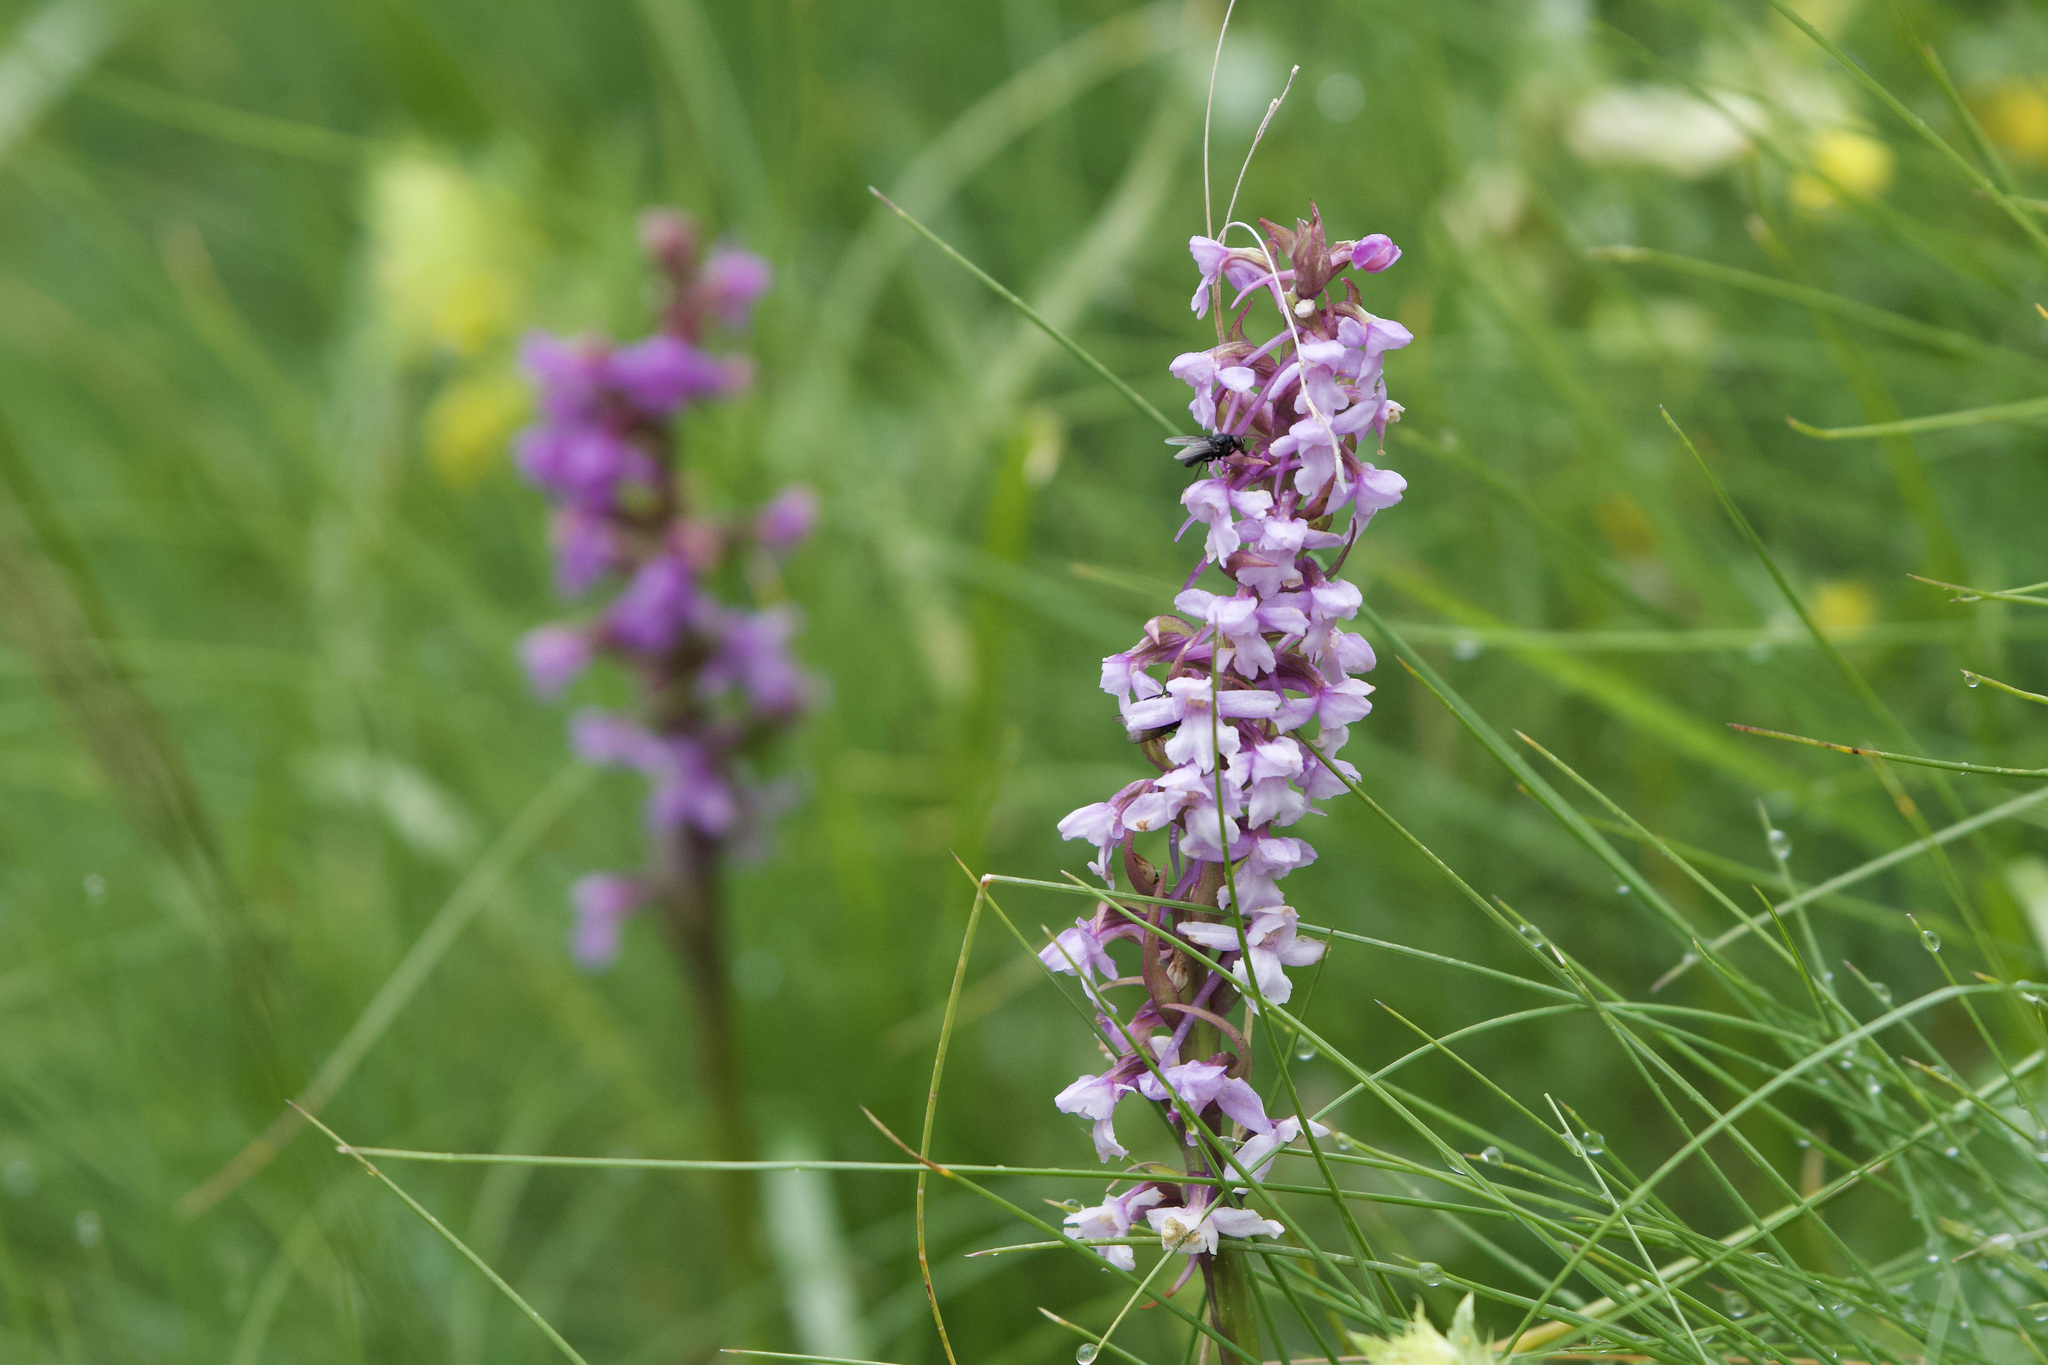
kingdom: Plantae
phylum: Tracheophyta
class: Liliopsida
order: Asparagales
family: Orchidaceae
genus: Gymnadenia
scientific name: Gymnadenia conopsea
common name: Fragrant orchid
